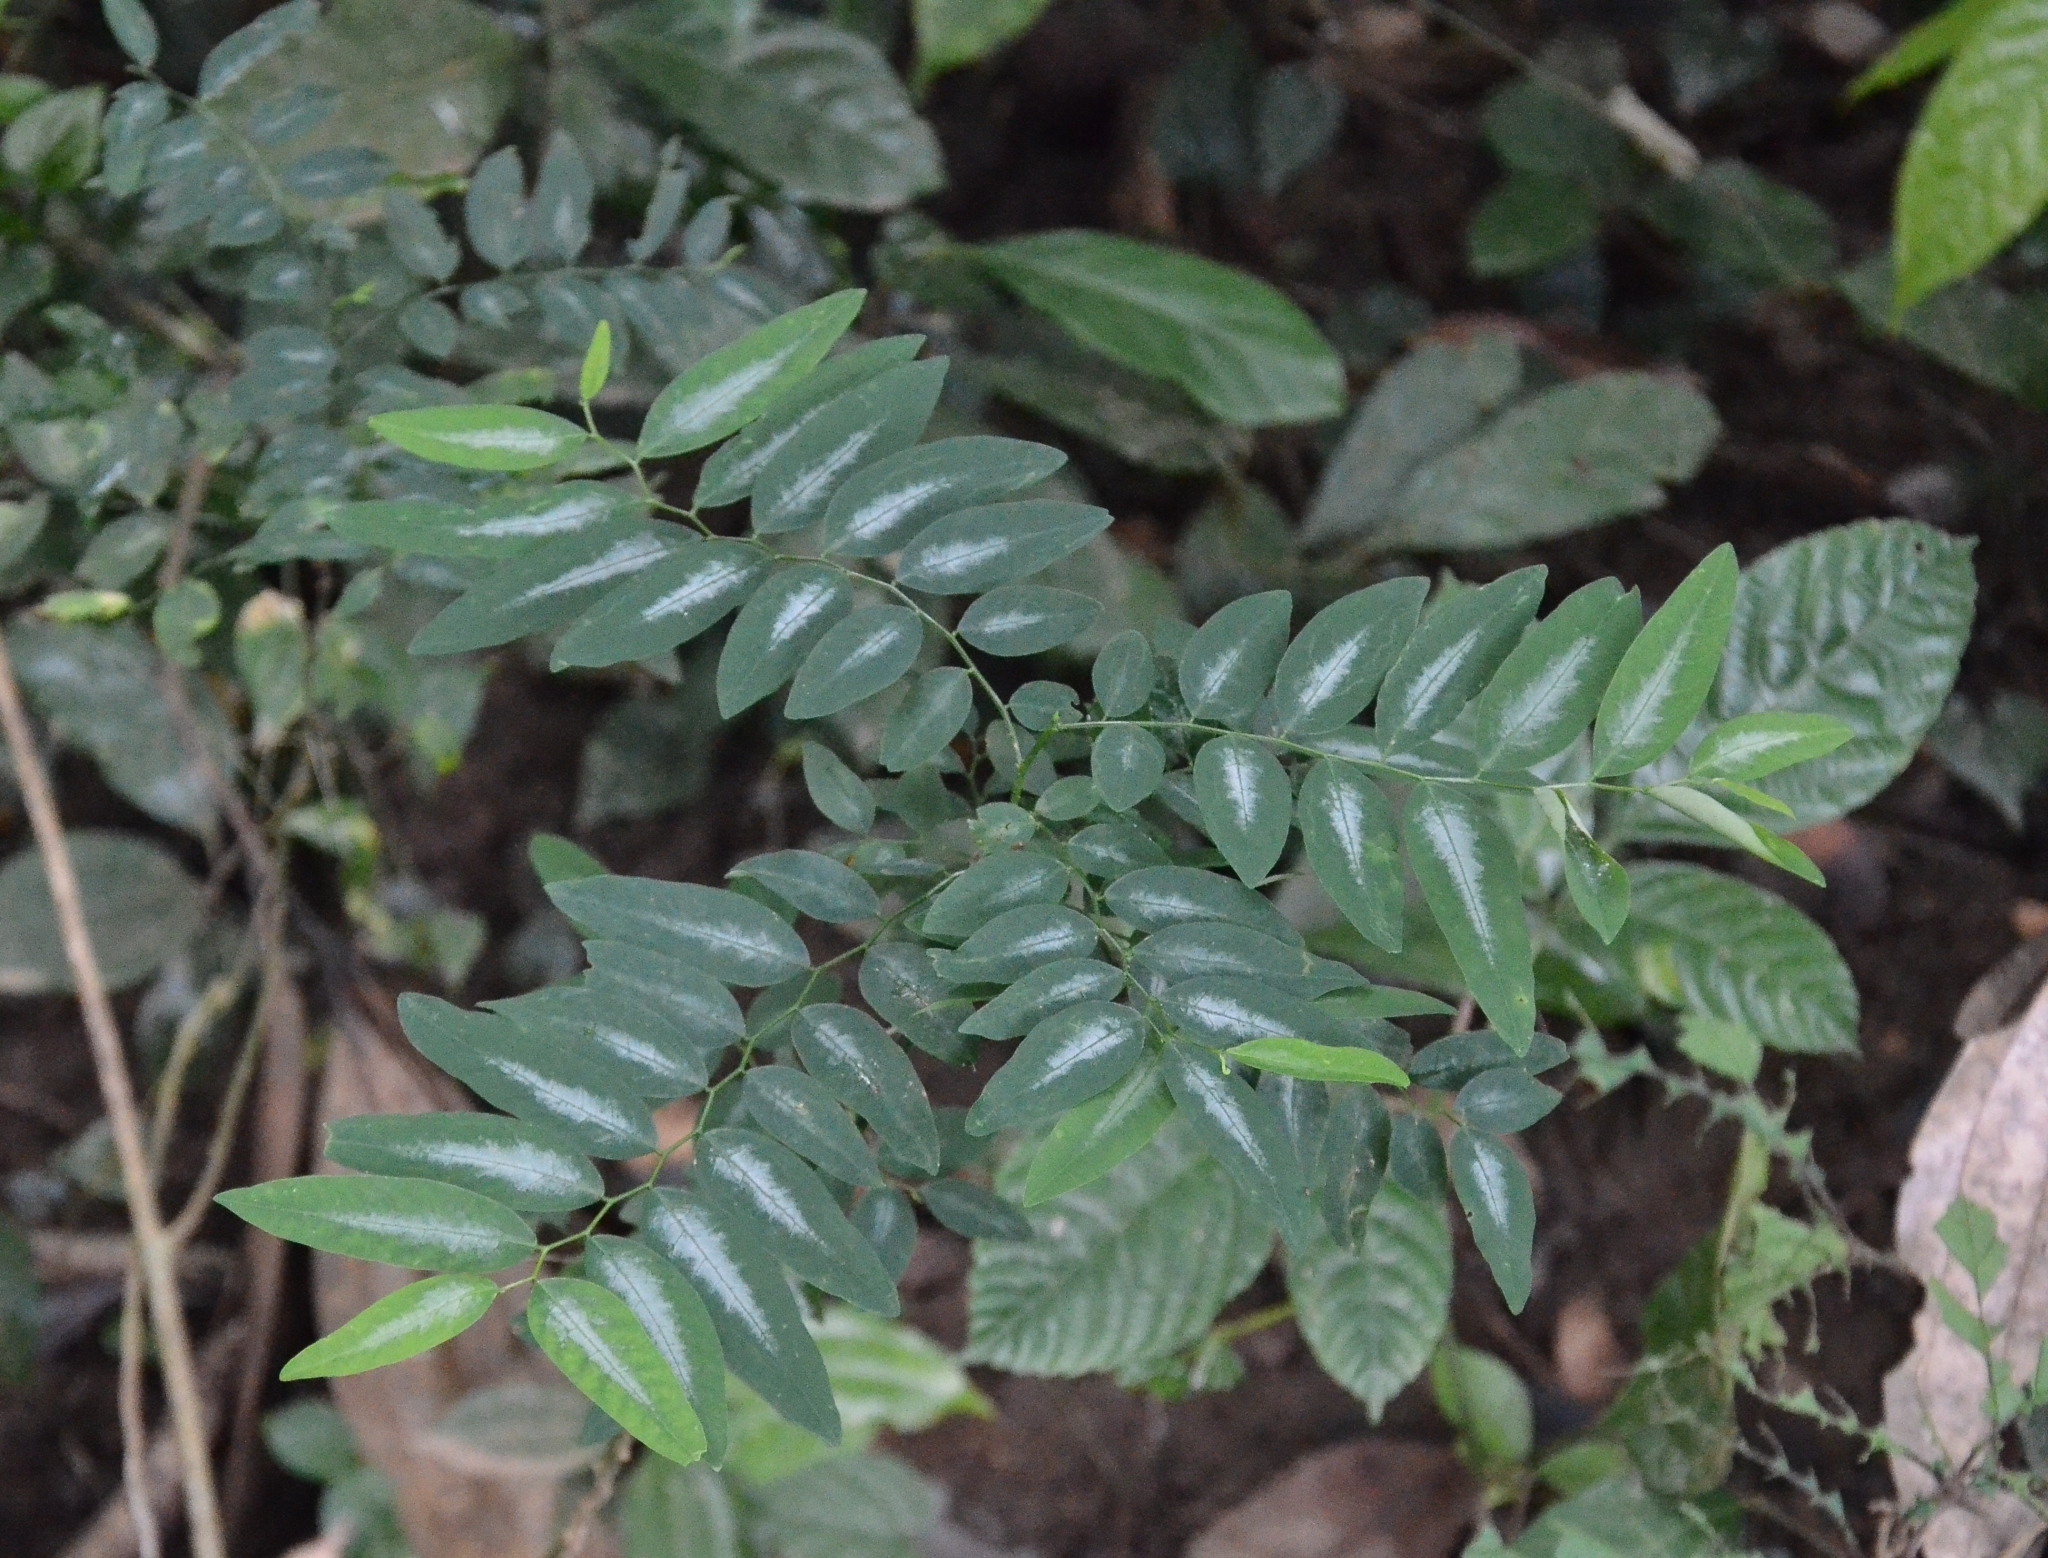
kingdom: Plantae
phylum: Tracheophyta
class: Magnoliopsida
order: Malpighiales
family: Phyllanthaceae
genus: Breynia
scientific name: Breynia androgyna
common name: Star gooseberry
